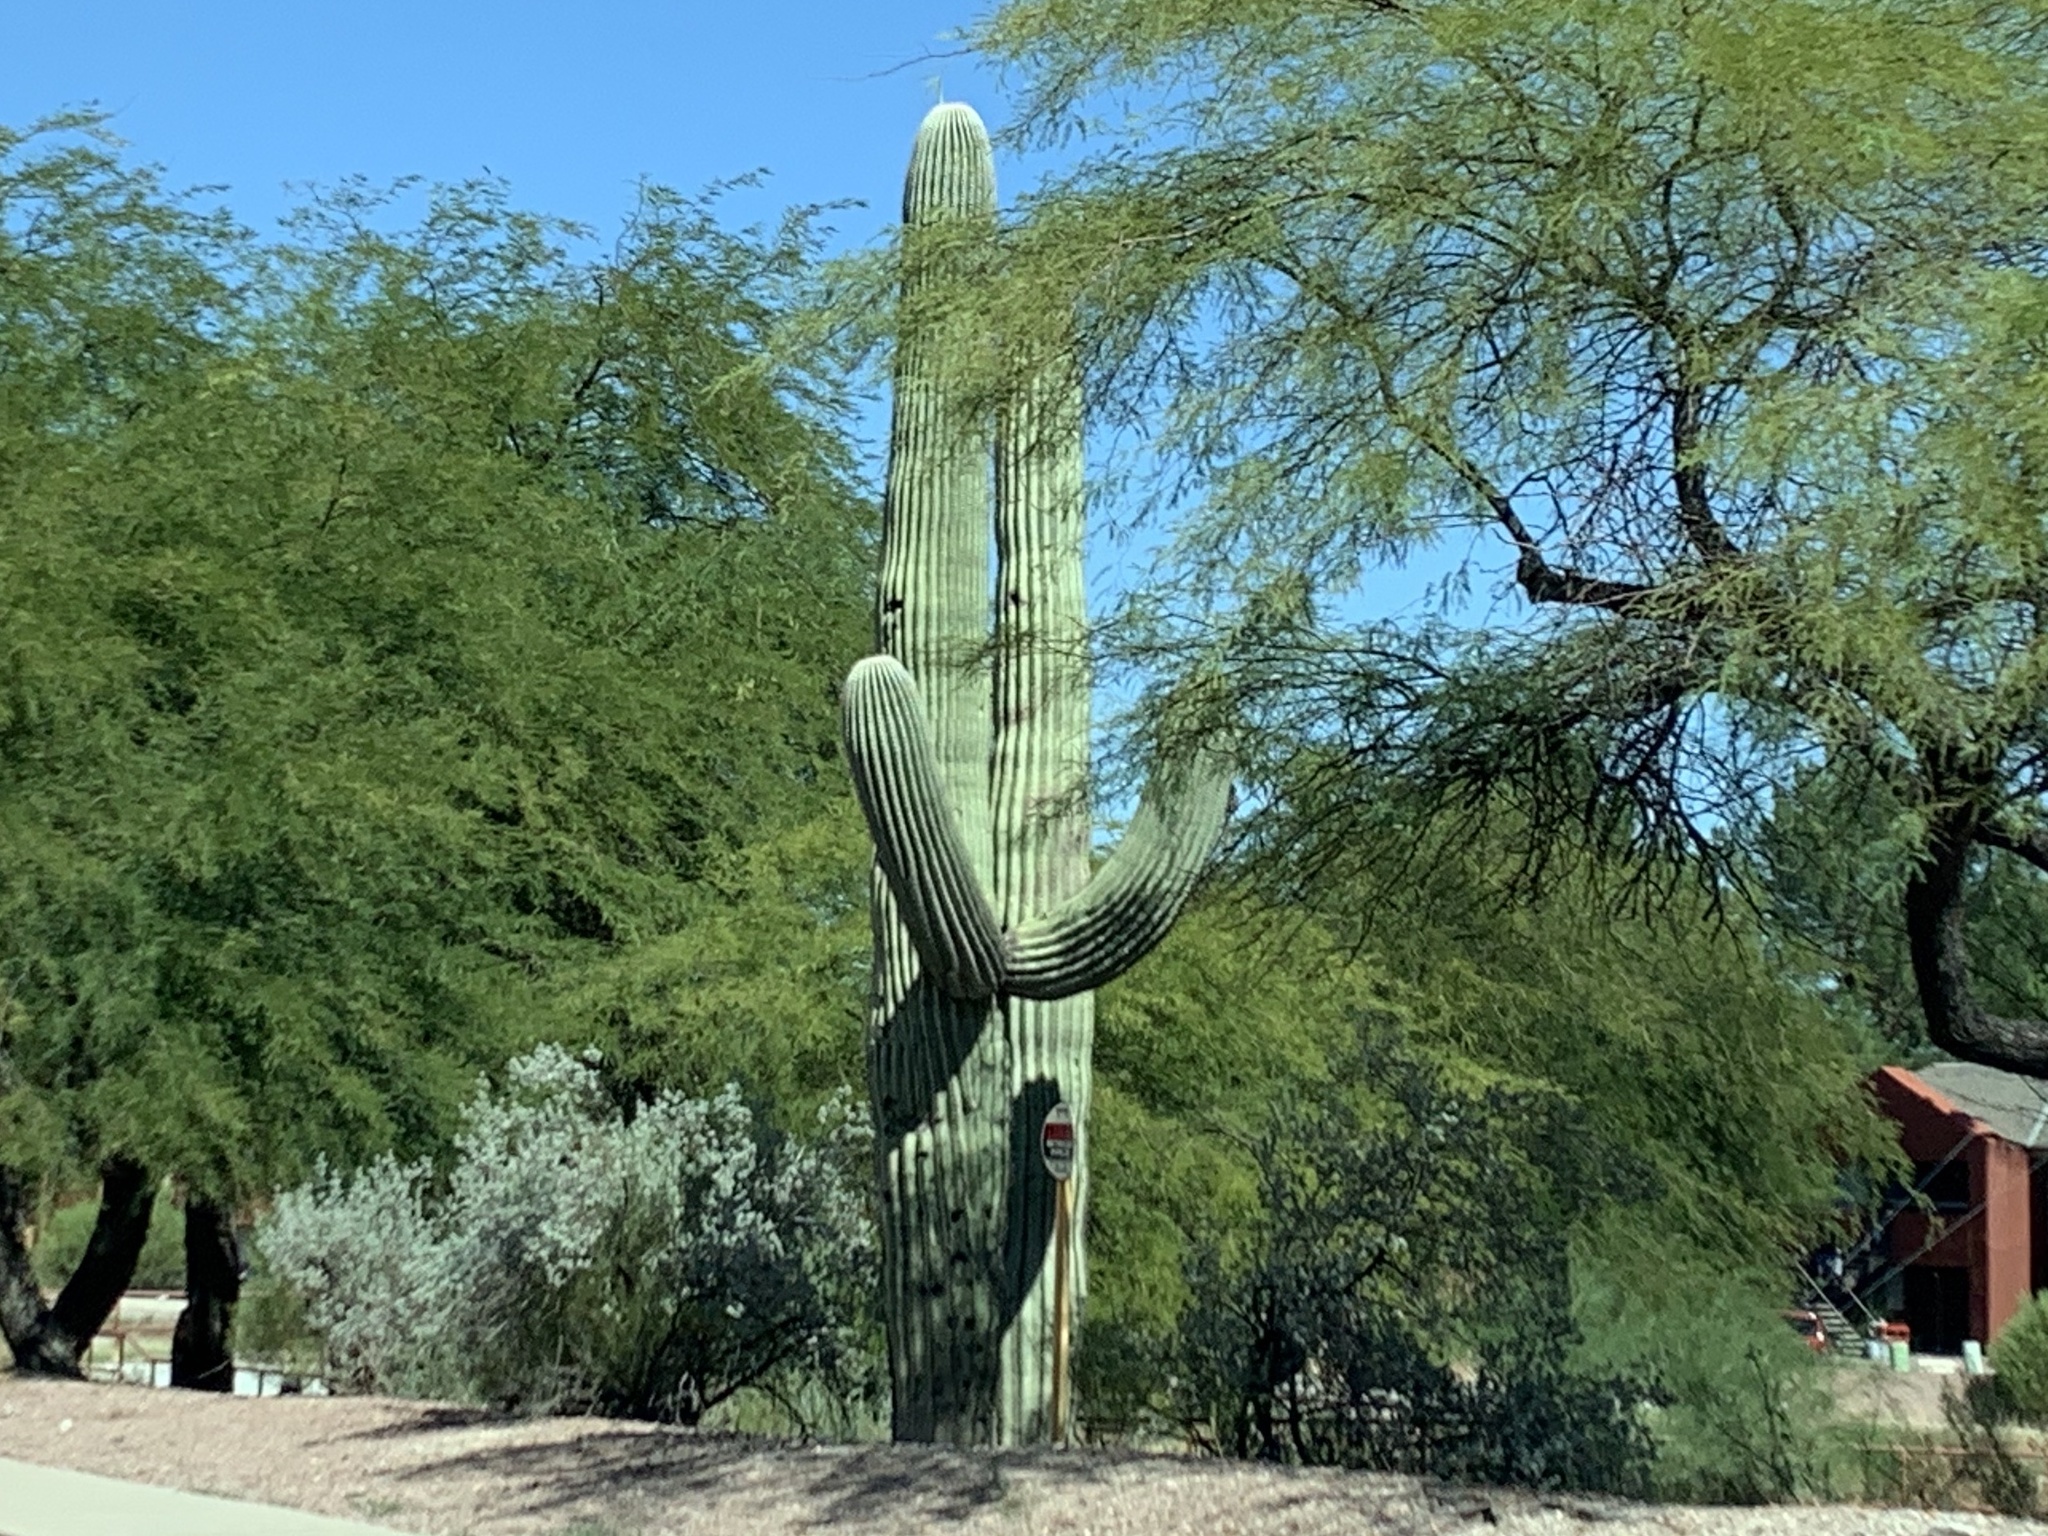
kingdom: Plantae
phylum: Tracheophyta
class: Magnoliopsida
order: Caryophyllales
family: Cactaceae
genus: Carnegiea
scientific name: Carnegiea gigantea
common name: Saguaro
